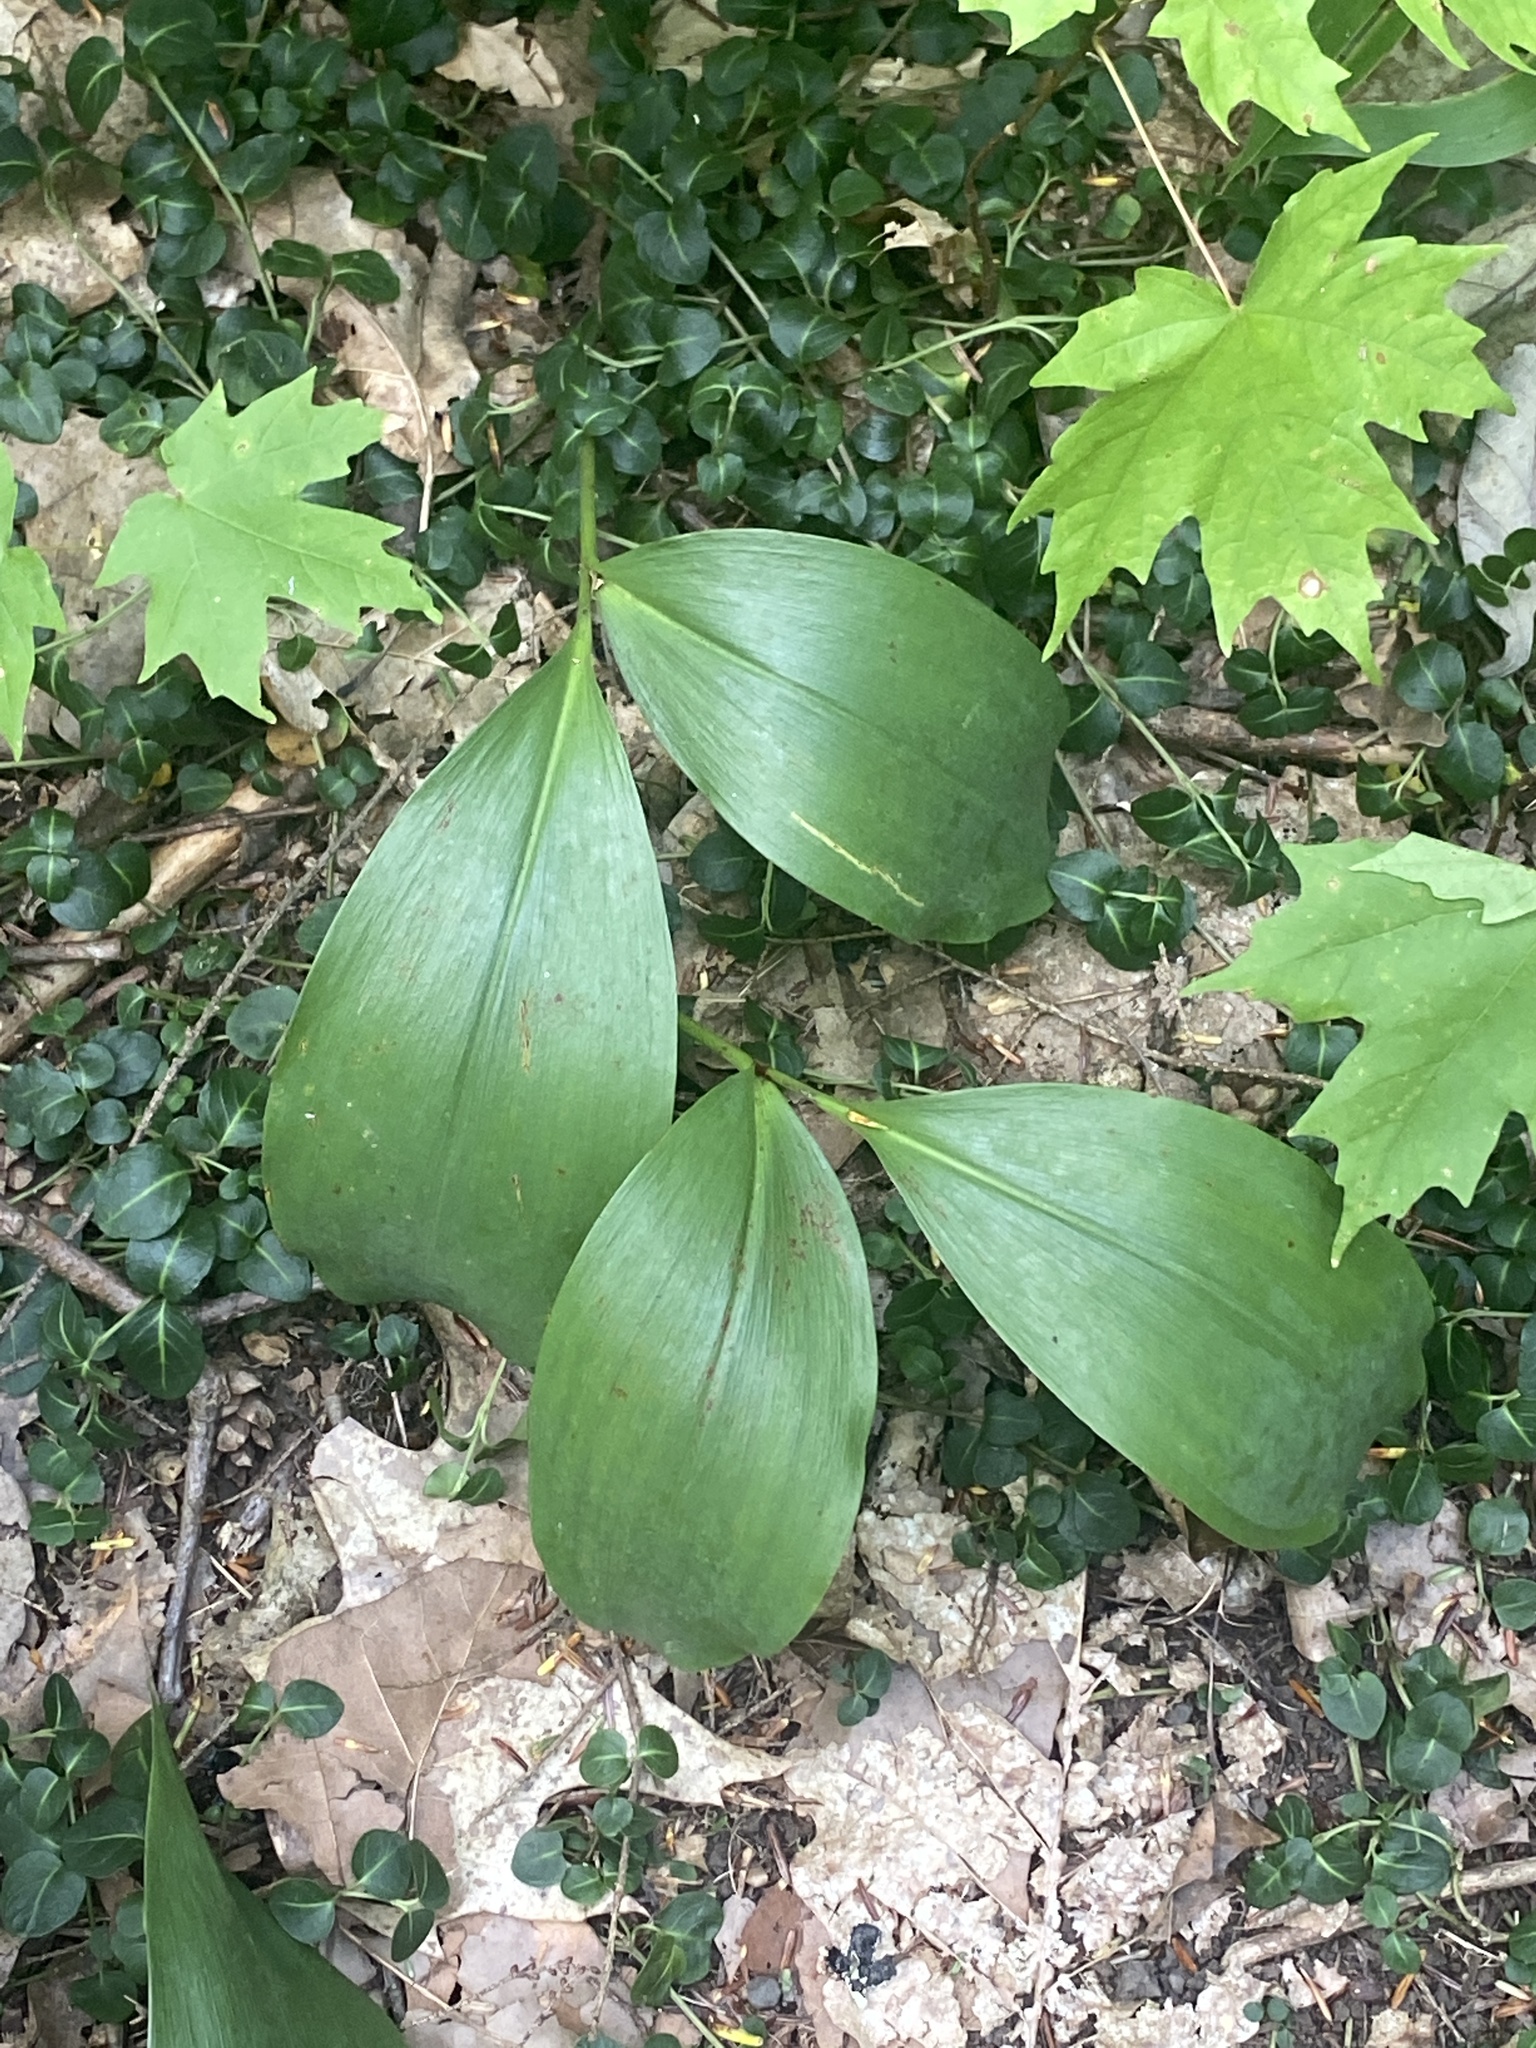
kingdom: Plantae
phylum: Tracheophyta
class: Liliopsida
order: Asparagales
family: Asparagaceae
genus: Convallaria
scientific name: Convallaria majalis
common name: Lily-of-the-valley
